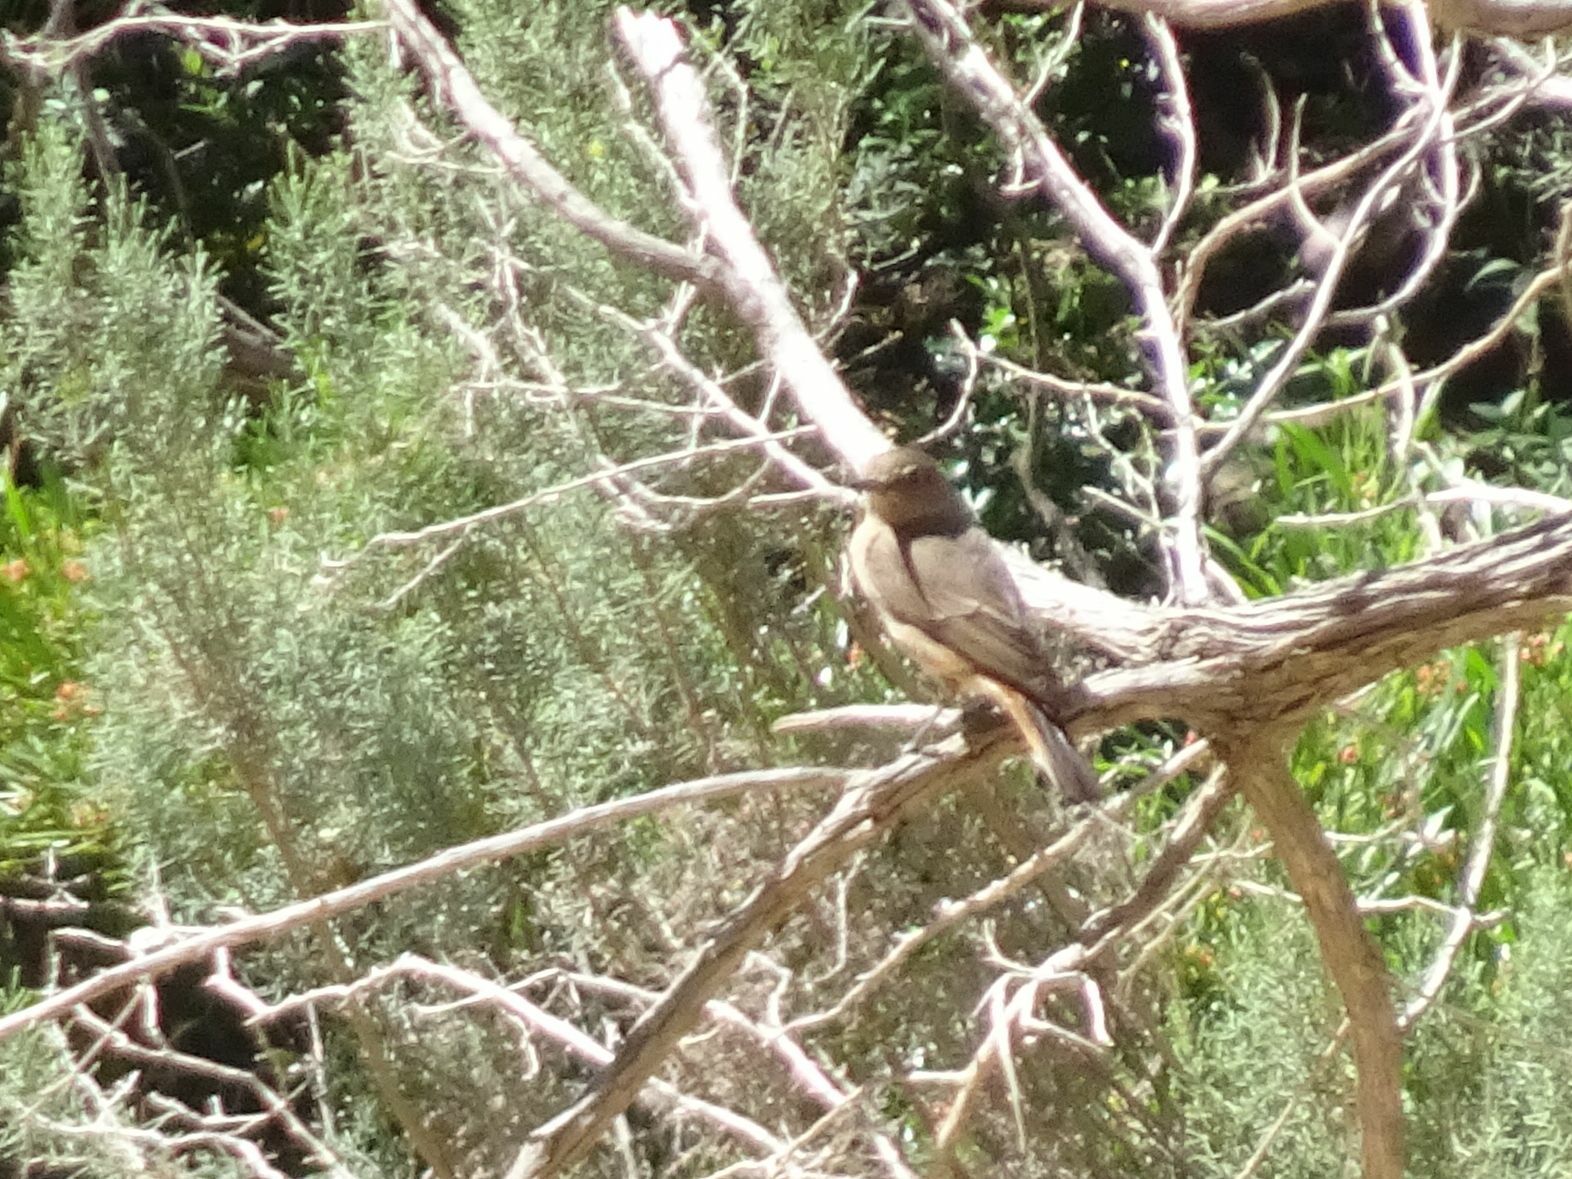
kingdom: Animalia
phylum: Chordata
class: Aves
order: Passeriformes
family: Muscicapidae
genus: Oenanthe
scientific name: Oenanthe familiaris
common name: Familiar chat
